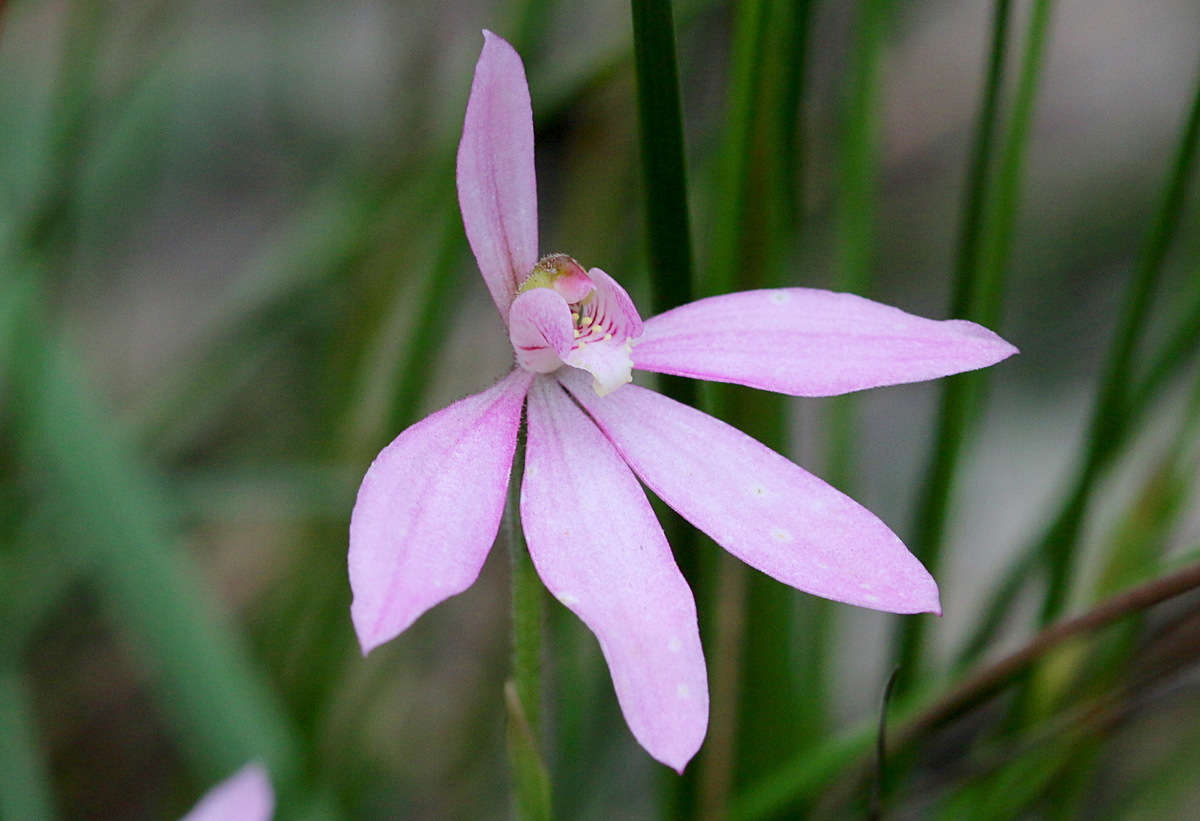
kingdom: Plantae
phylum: Tracheophyta
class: Liliopsida
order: Asparagales
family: Orchidaceae
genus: Caladenia
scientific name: Caladenia carnea
